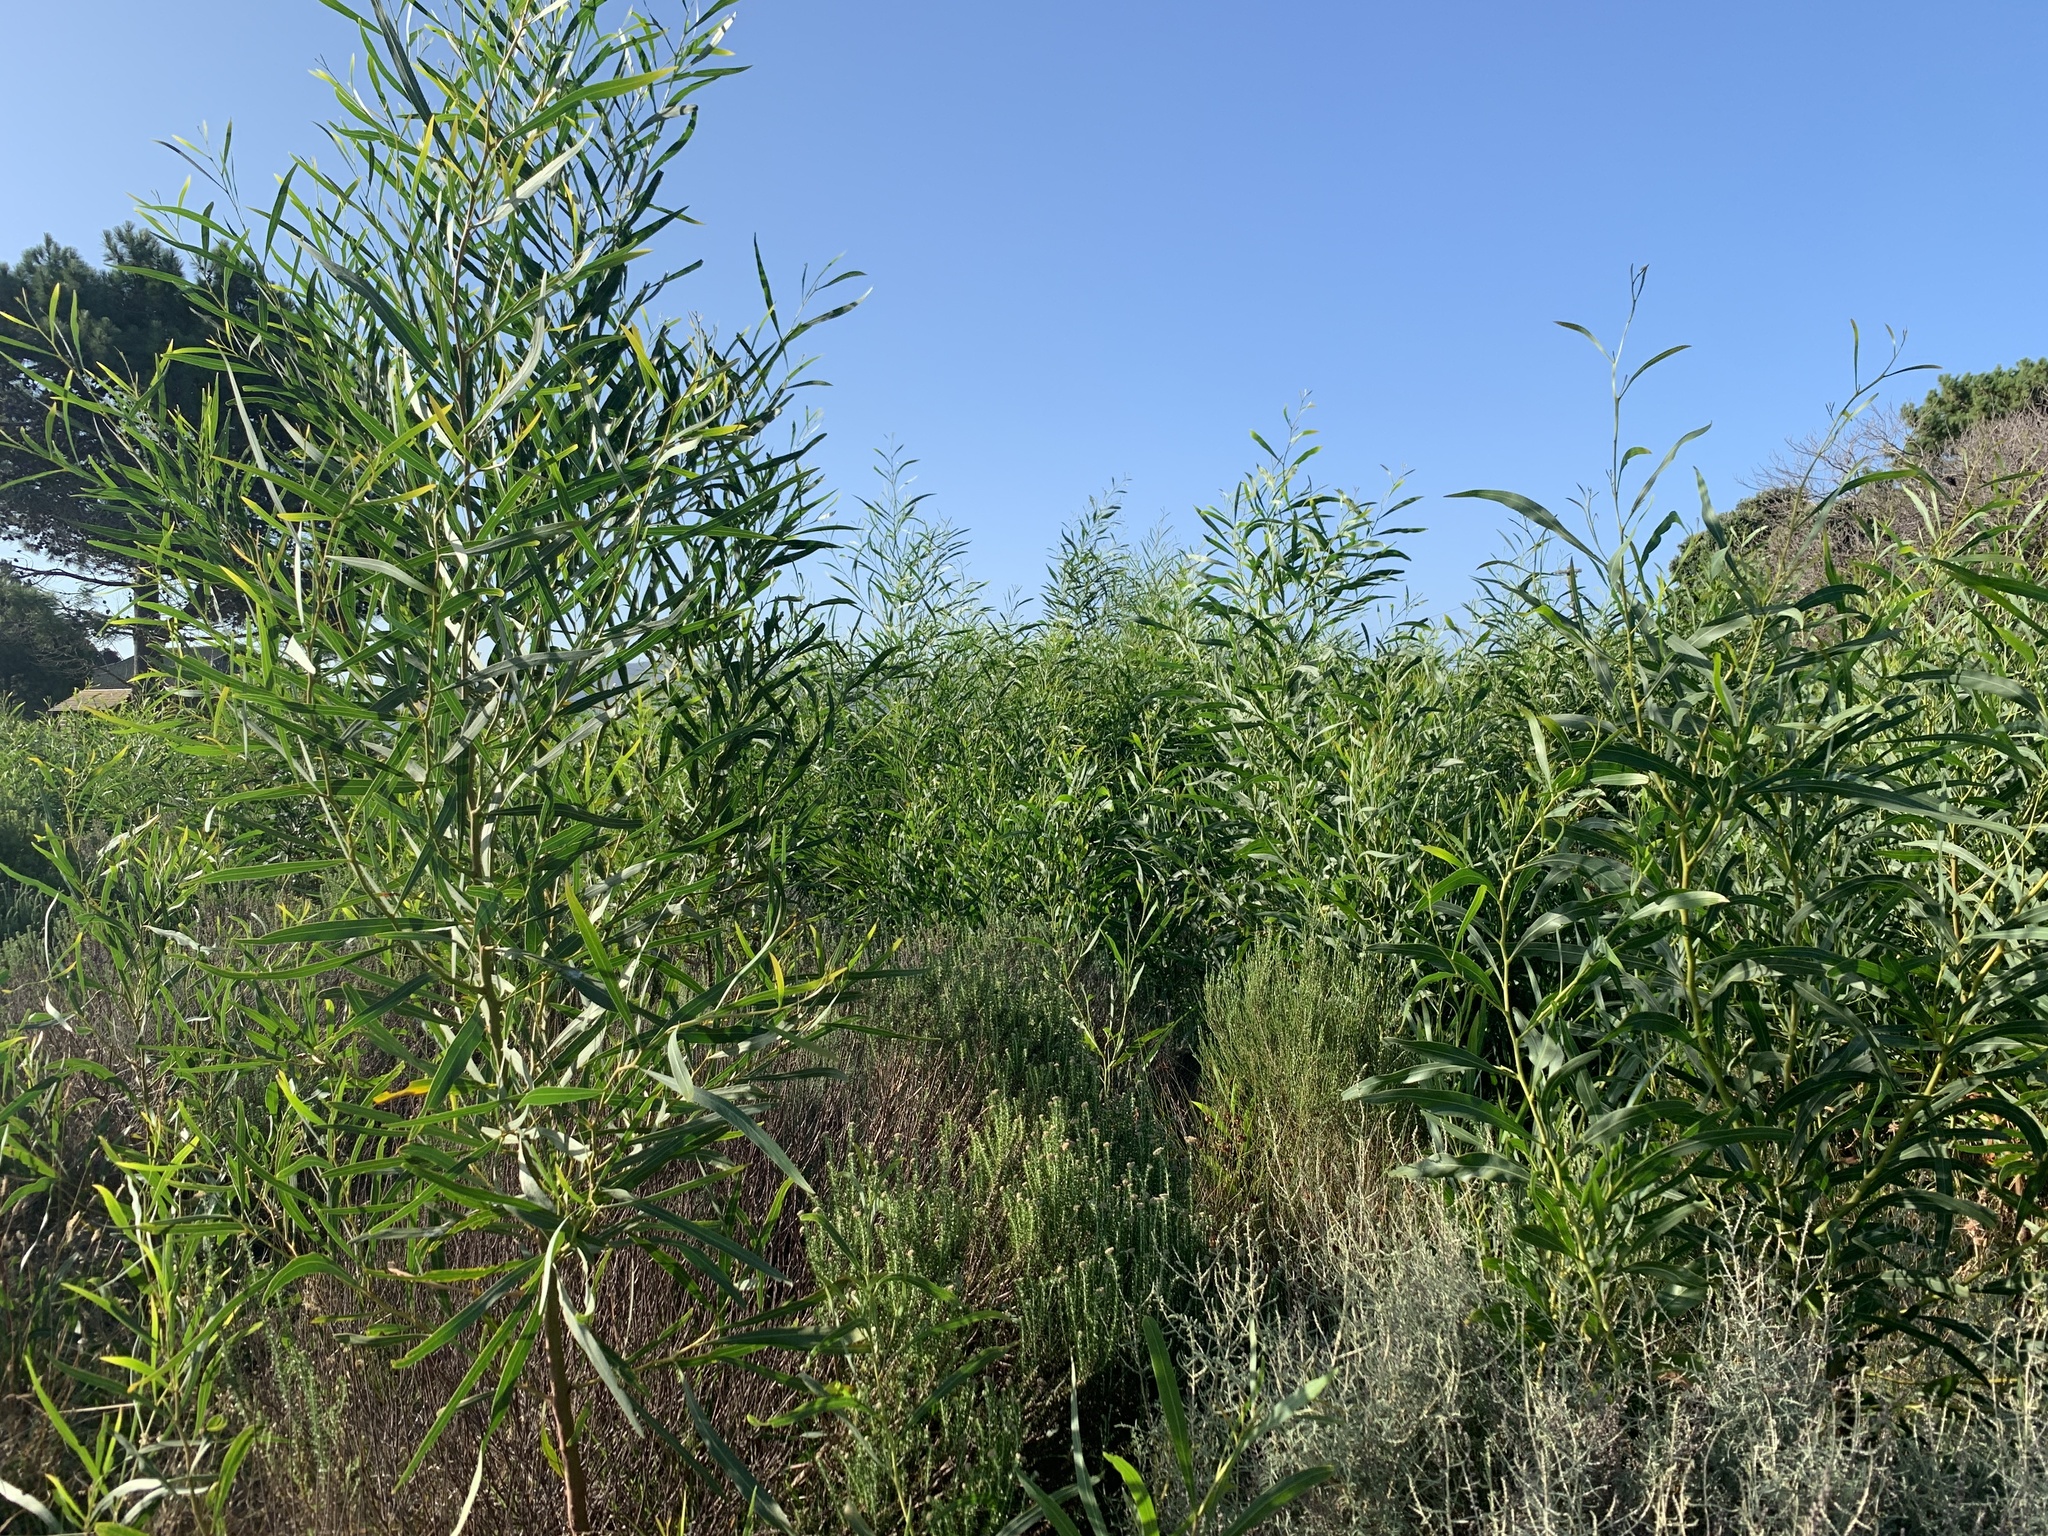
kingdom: Plantae
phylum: Tracheophyta
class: Magnoliopsida
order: Fabales
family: Fabaceae
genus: Acacia
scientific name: Acacia saligna
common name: Orange wattle
